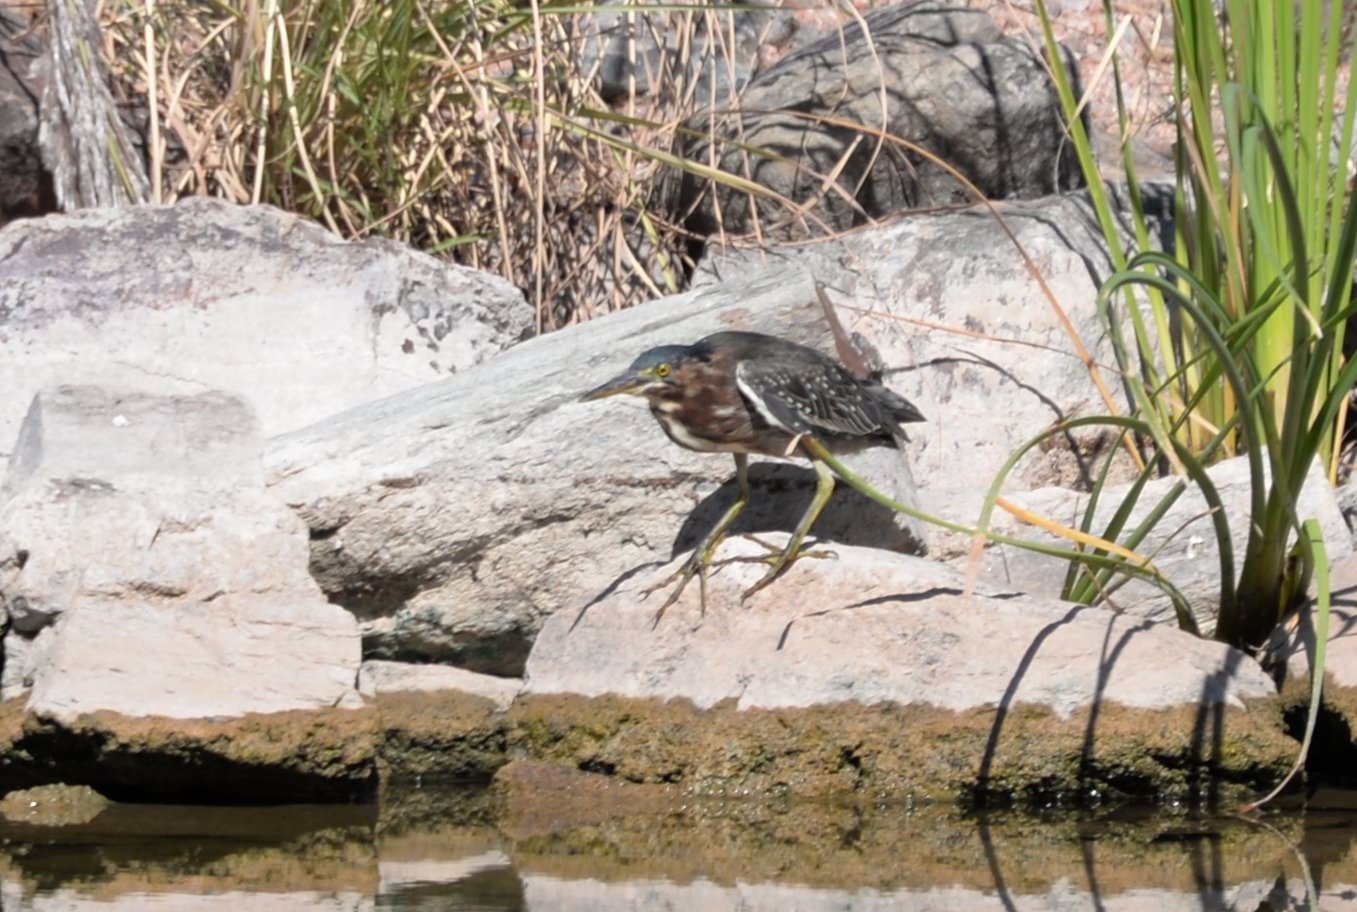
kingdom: Animalia
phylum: Chordata
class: Aves
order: Pelecaniformes
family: Ardeidae
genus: Butorides
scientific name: Butorides virescens
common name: Green heron
